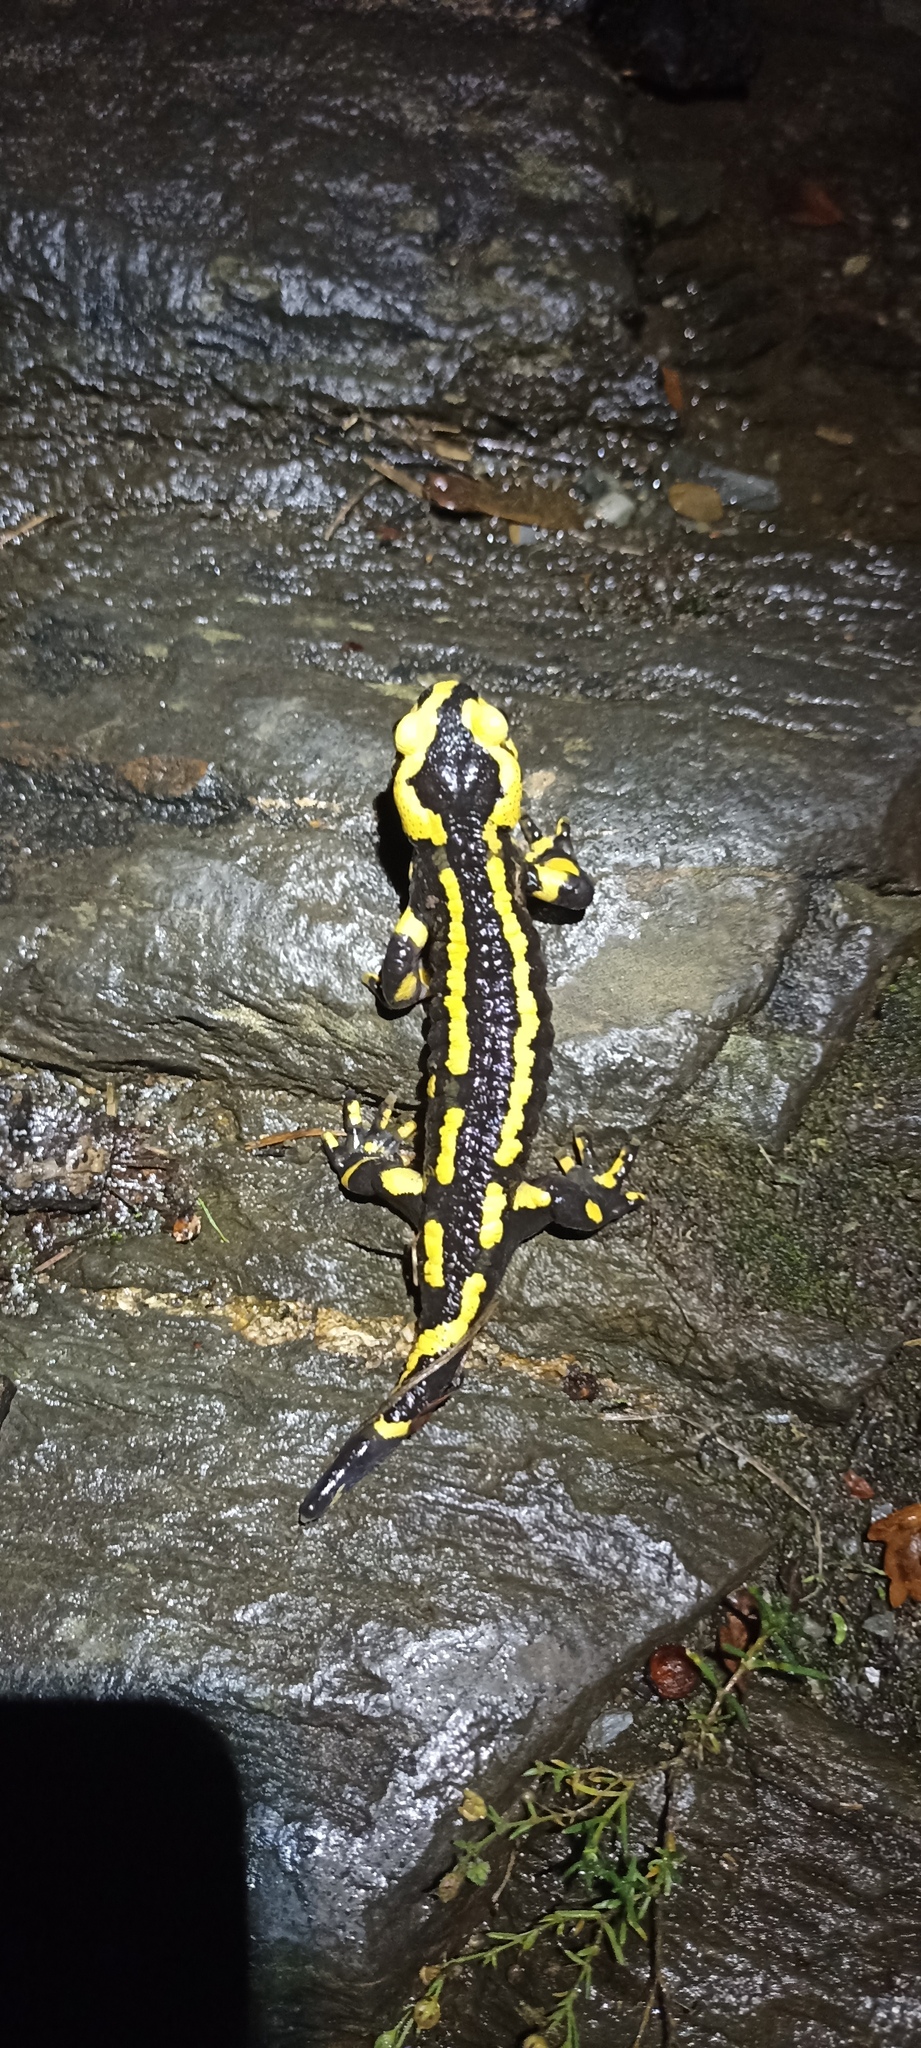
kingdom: Animalia
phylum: Chordata
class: Amphibia
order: Caudata
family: Salamandridae
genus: Salamandra
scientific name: Salamandra salamandra
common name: Fire salamander
